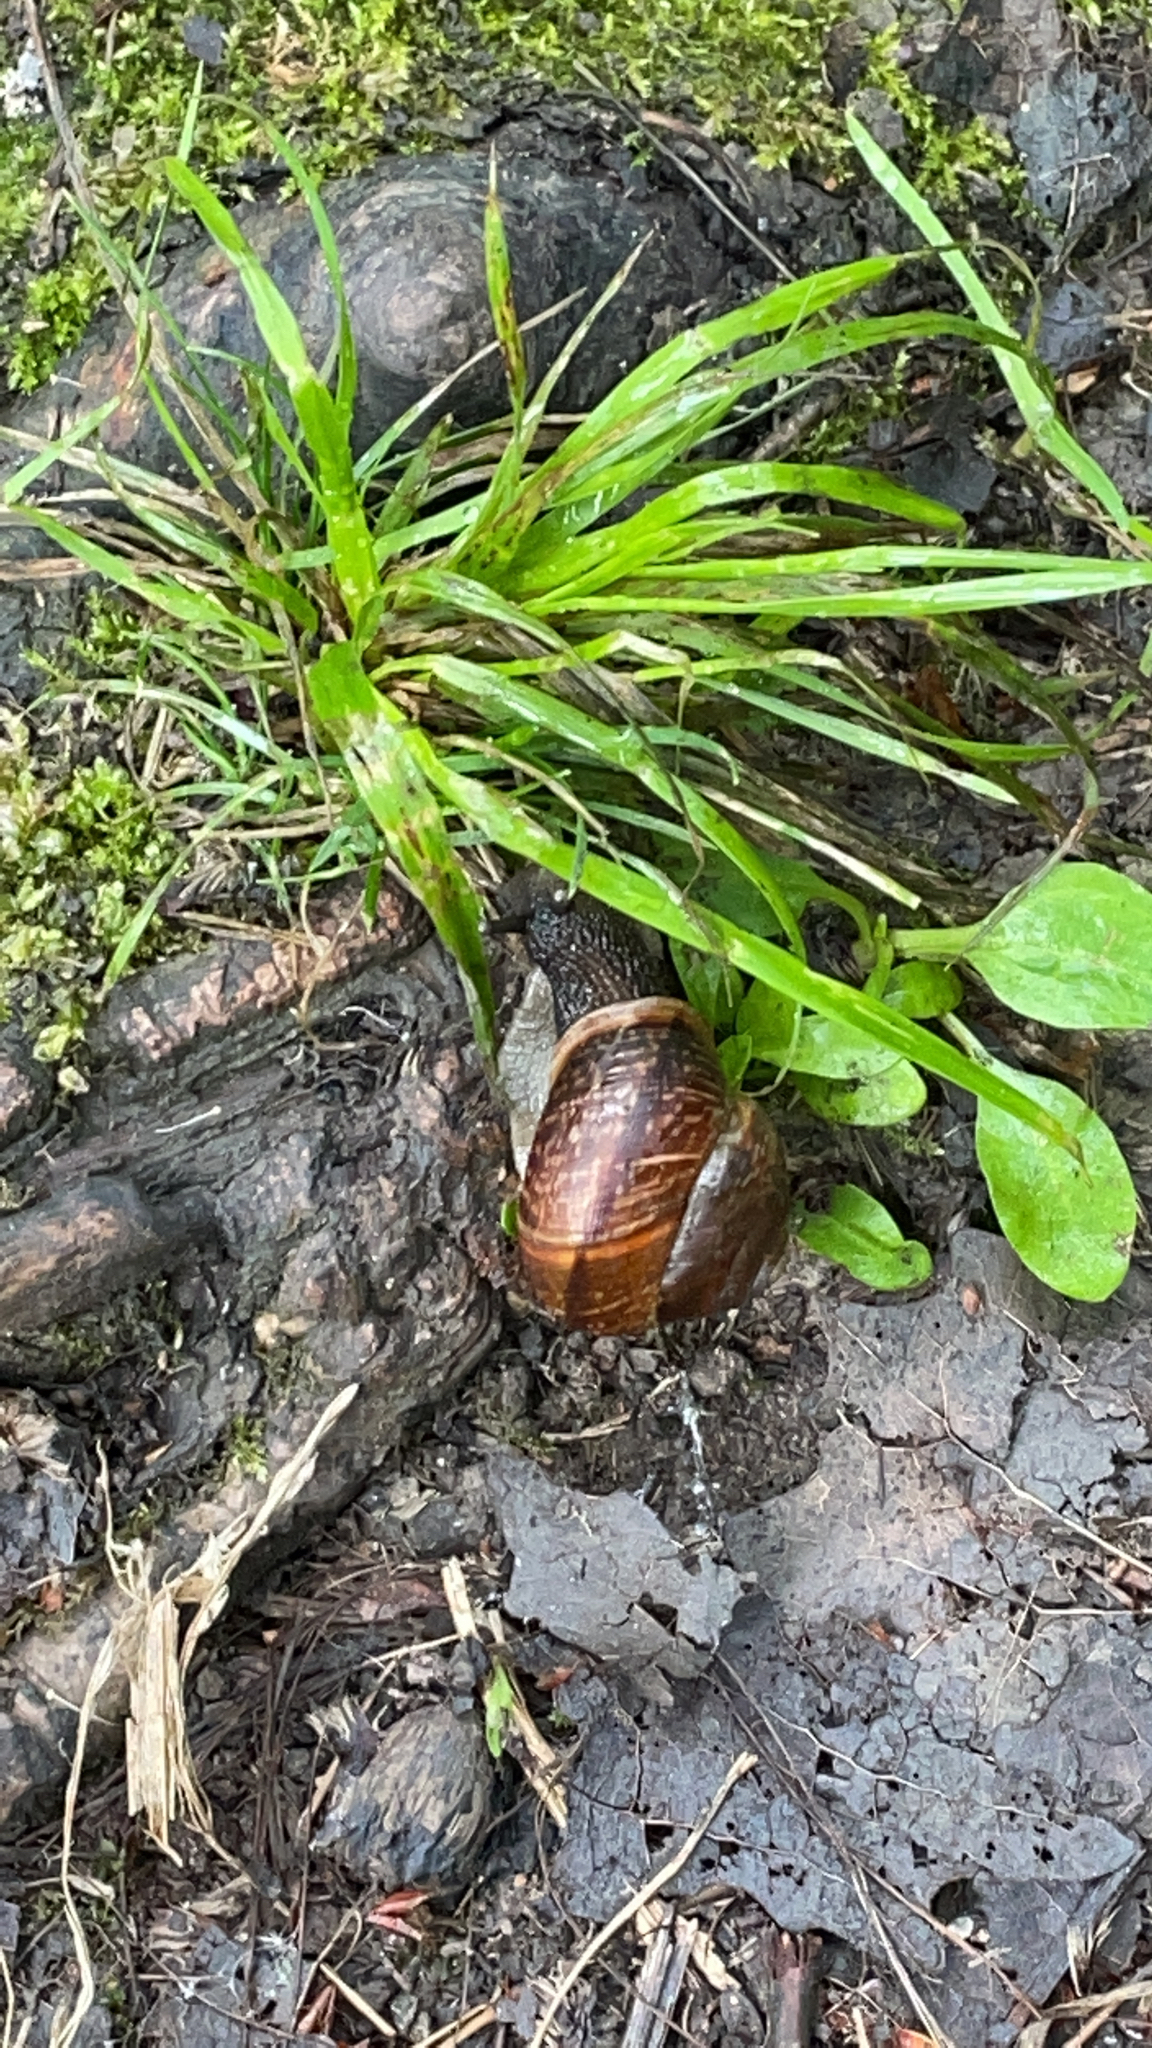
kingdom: Animalia
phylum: Mollusca
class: Gastropoda
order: Stylommatophora
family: Helicidae
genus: Arianta
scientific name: Arianta arbustorum
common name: Copse snail
